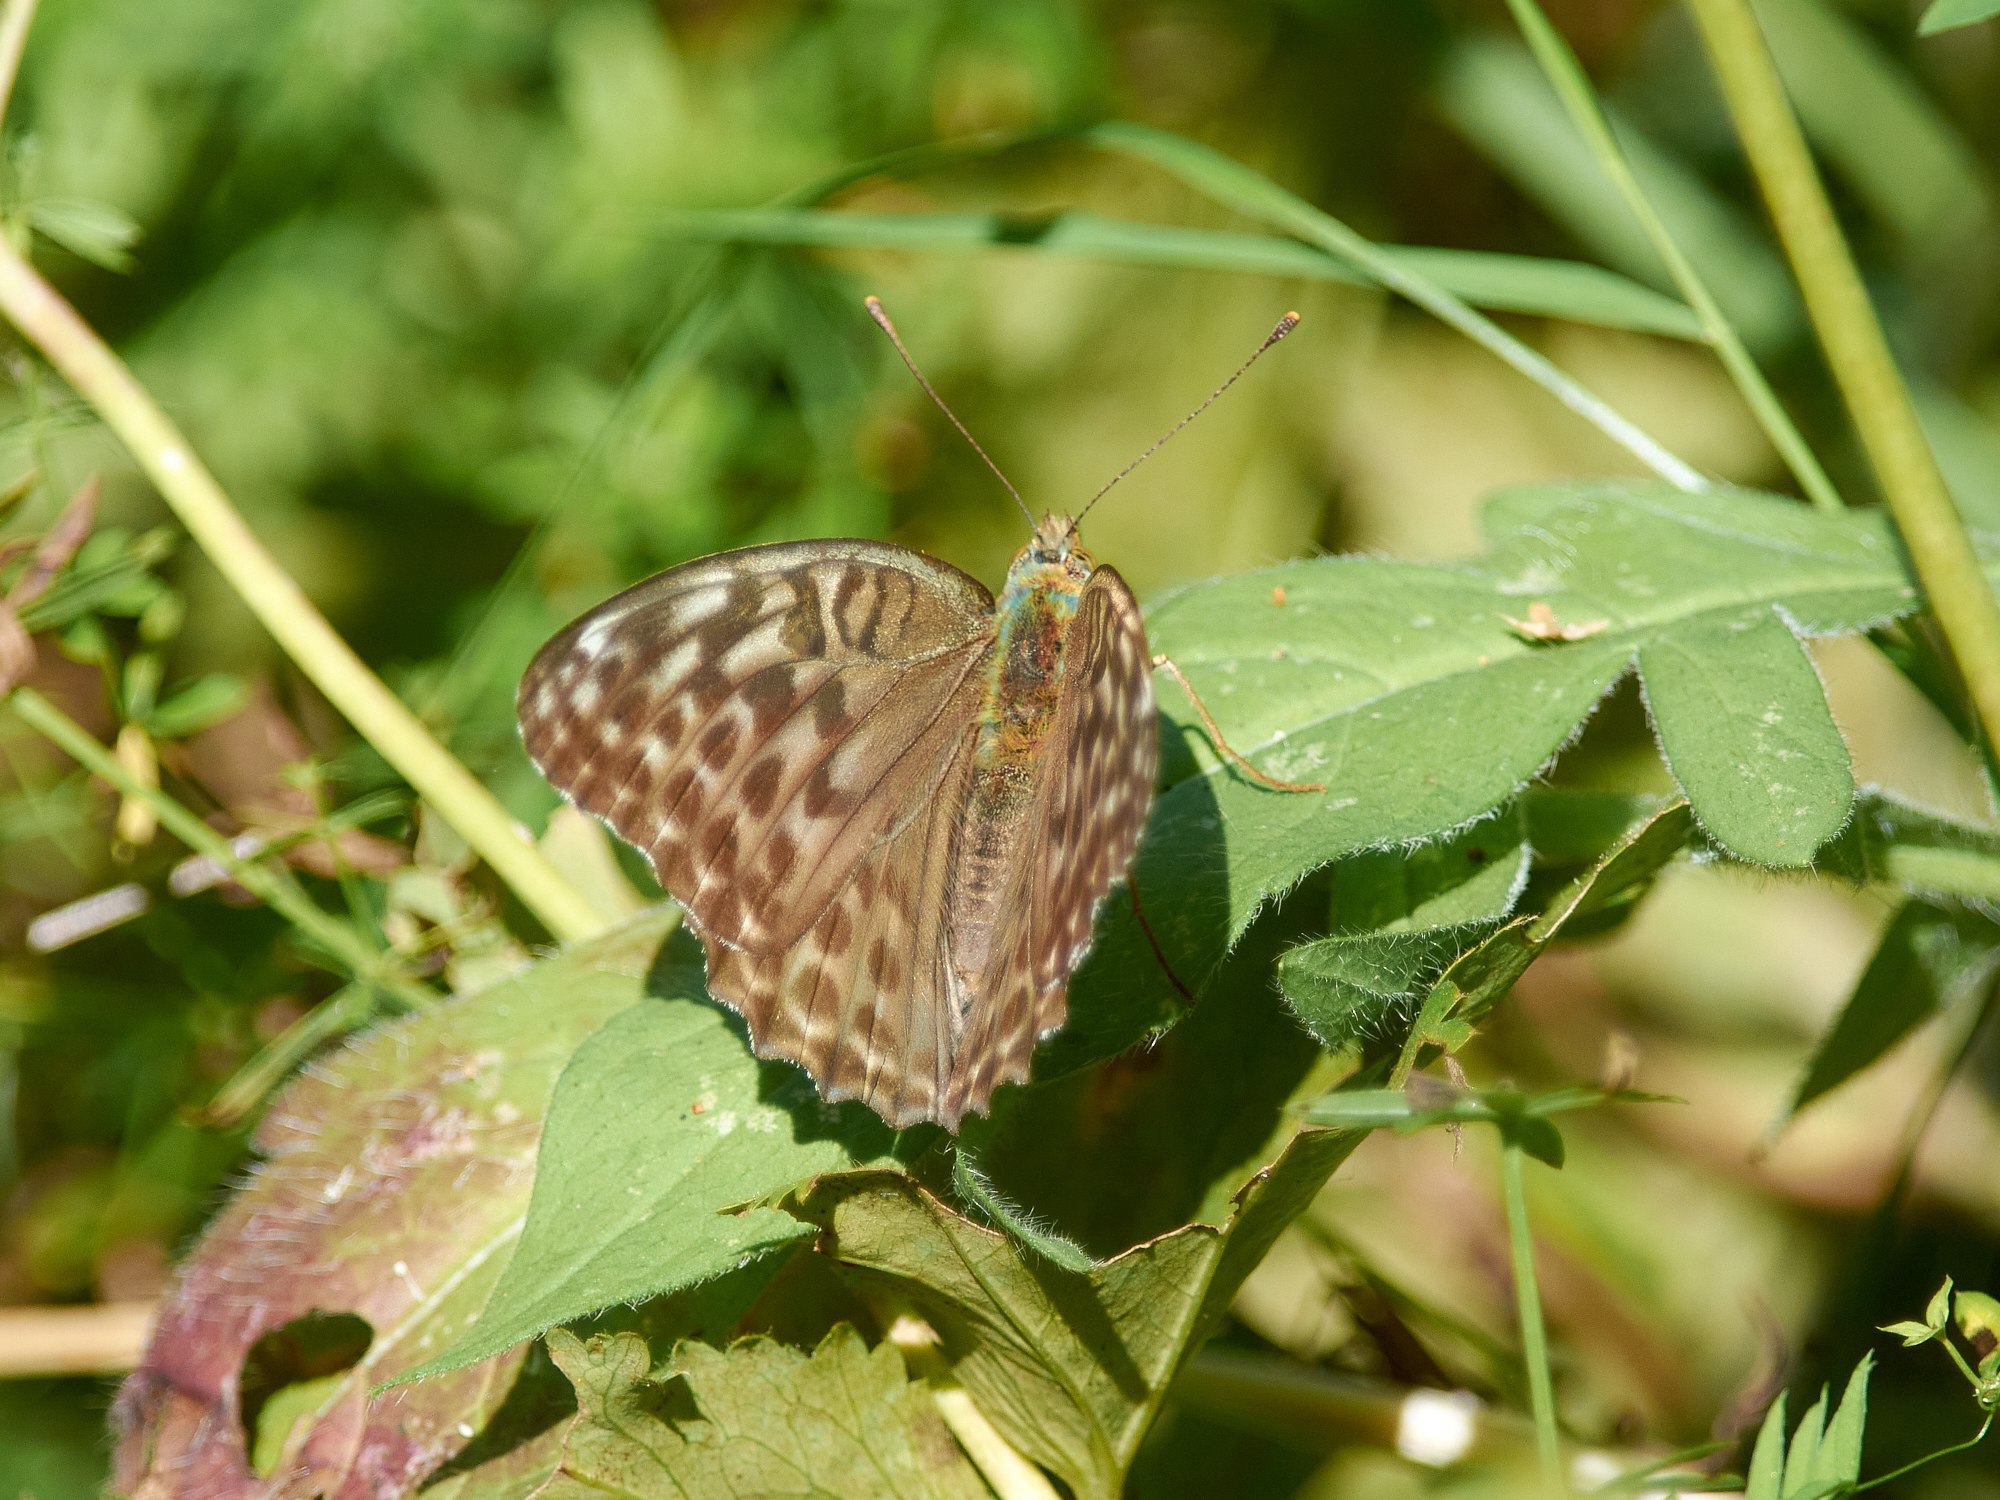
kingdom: Animalia
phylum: Arthropoda
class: Insecta
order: Lepidoptera
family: Nymphalidae
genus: Argynnis
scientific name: Argynnis paphia
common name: Silver-washed fritillary
